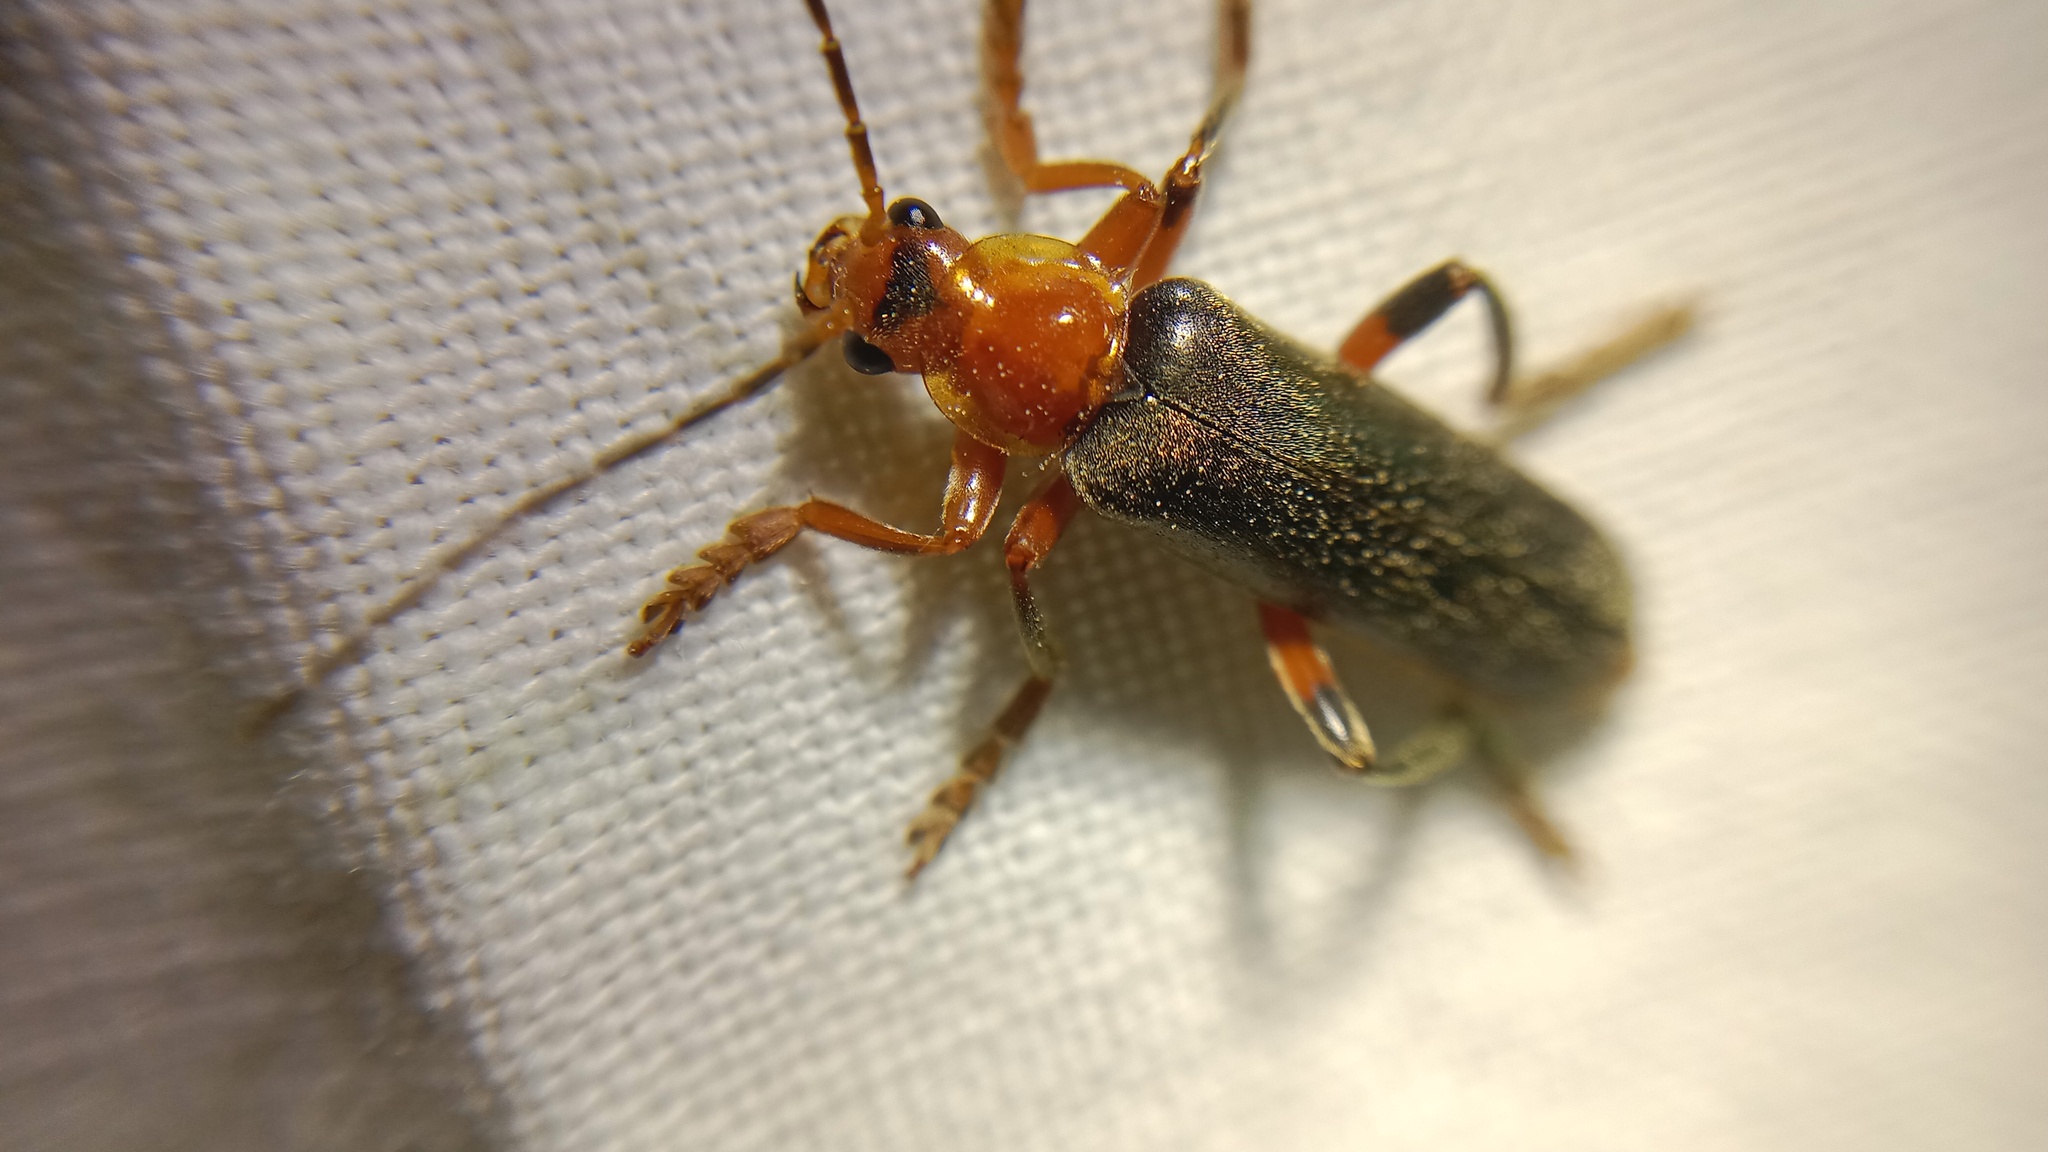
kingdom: Animalia
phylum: Arthropoda
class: Insecta
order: Coleoptera
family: Cantharidae
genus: Cantharis
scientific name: Cantharis livida
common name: Livid soldier beetle
